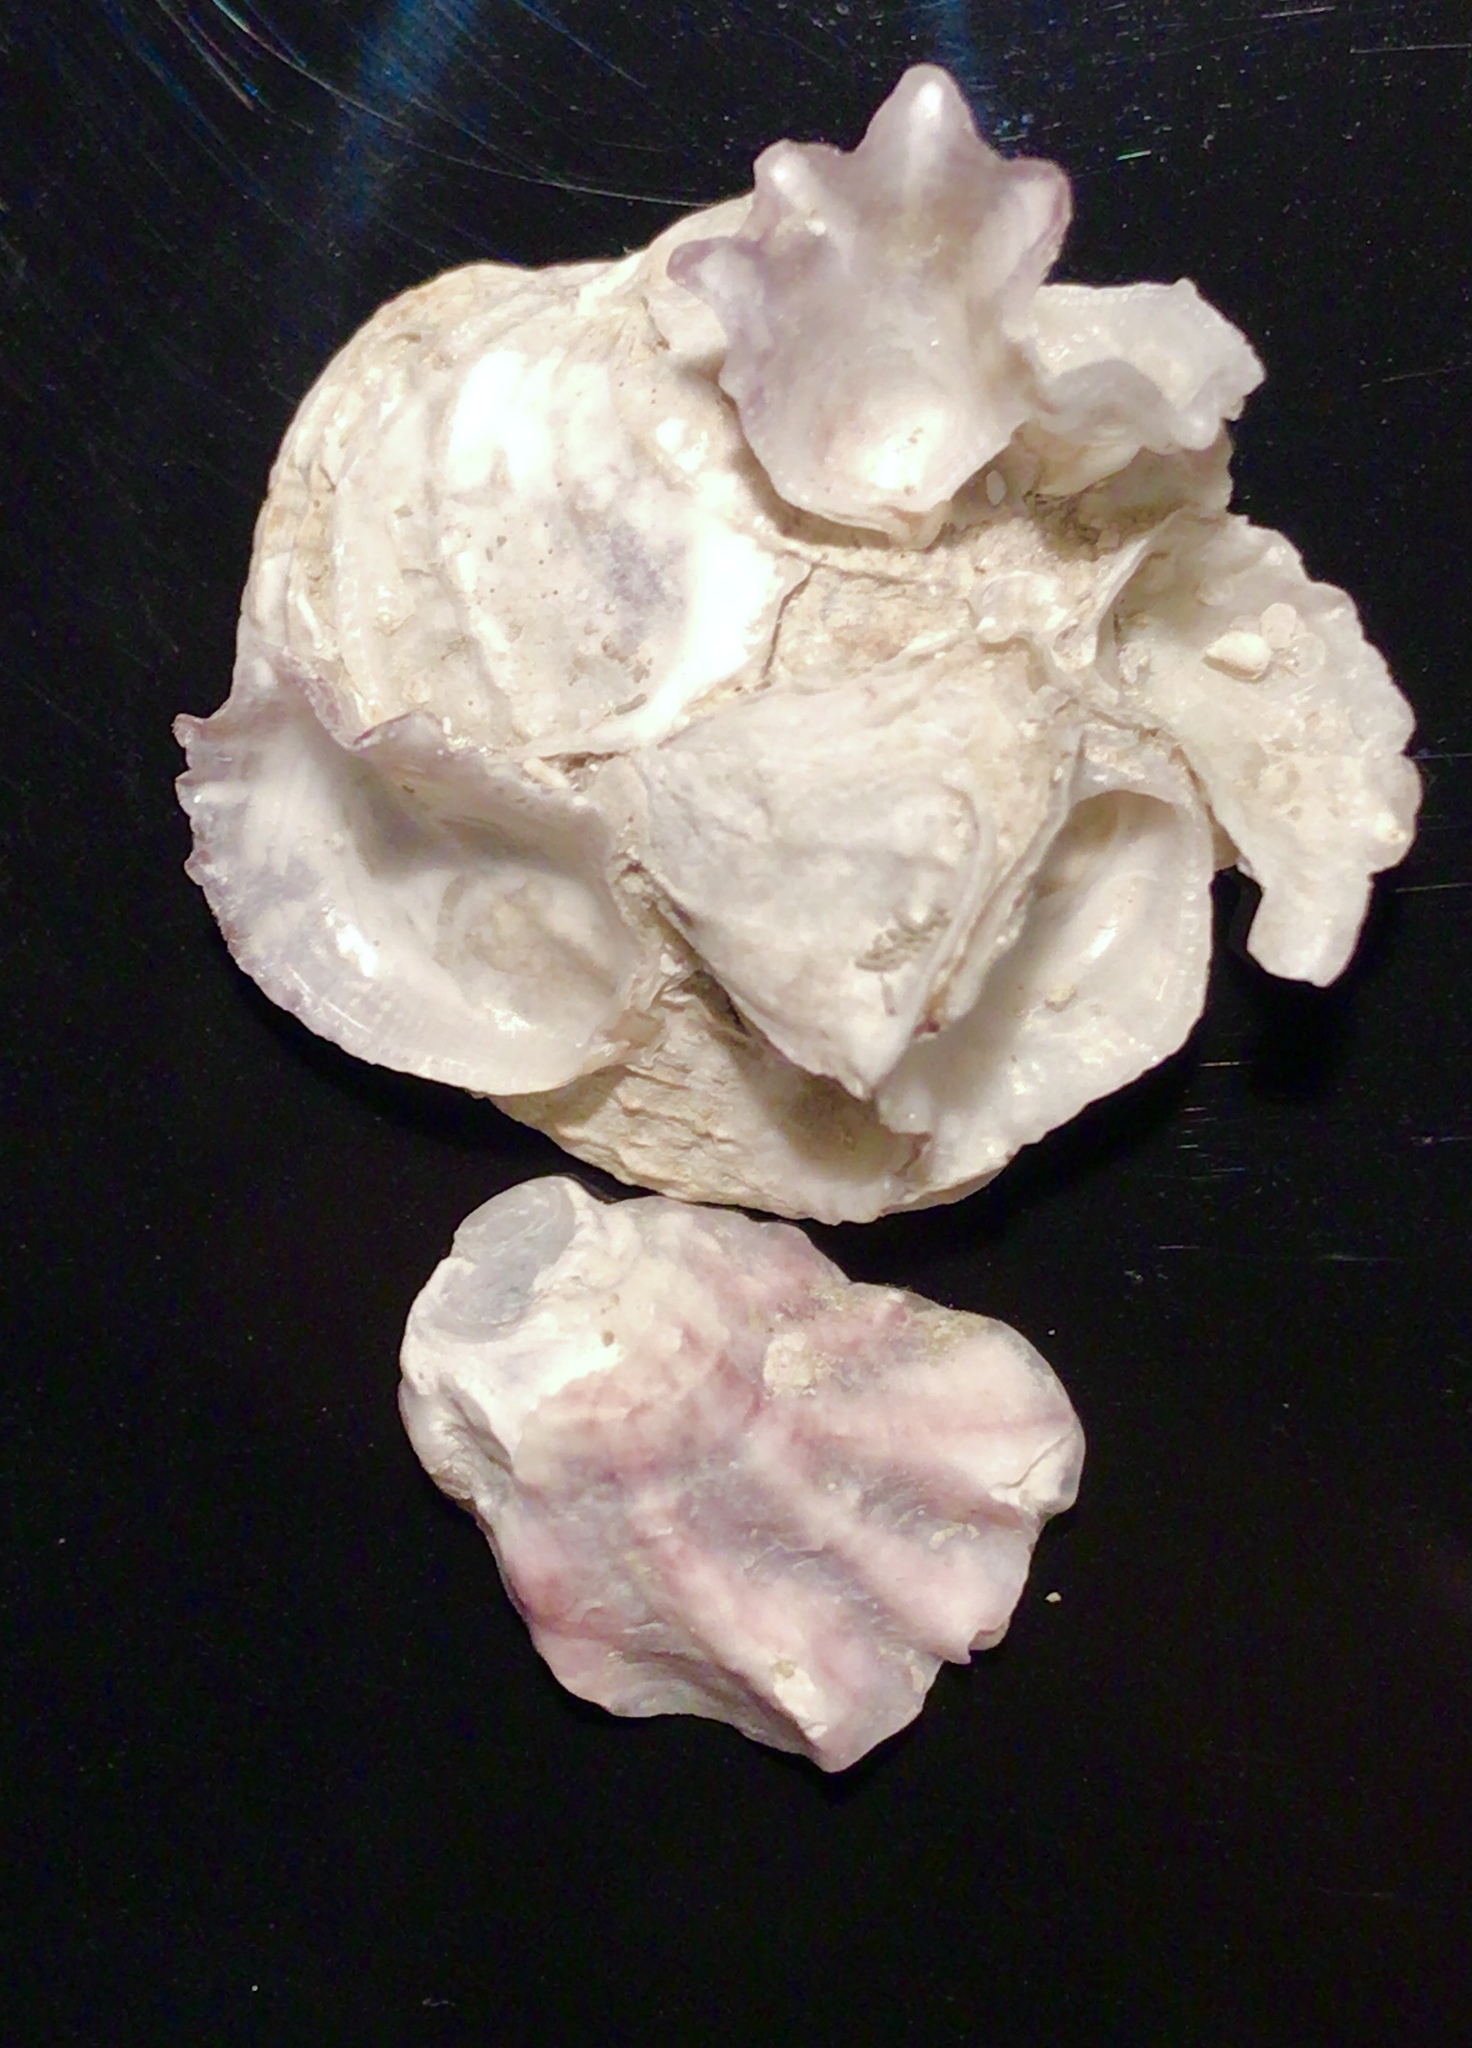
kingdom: Animalia
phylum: Mollusca
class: Bivalvia
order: Ostreida
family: Ostreidae
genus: Ostrea
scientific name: Ostrea equestris
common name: Crested oyster
